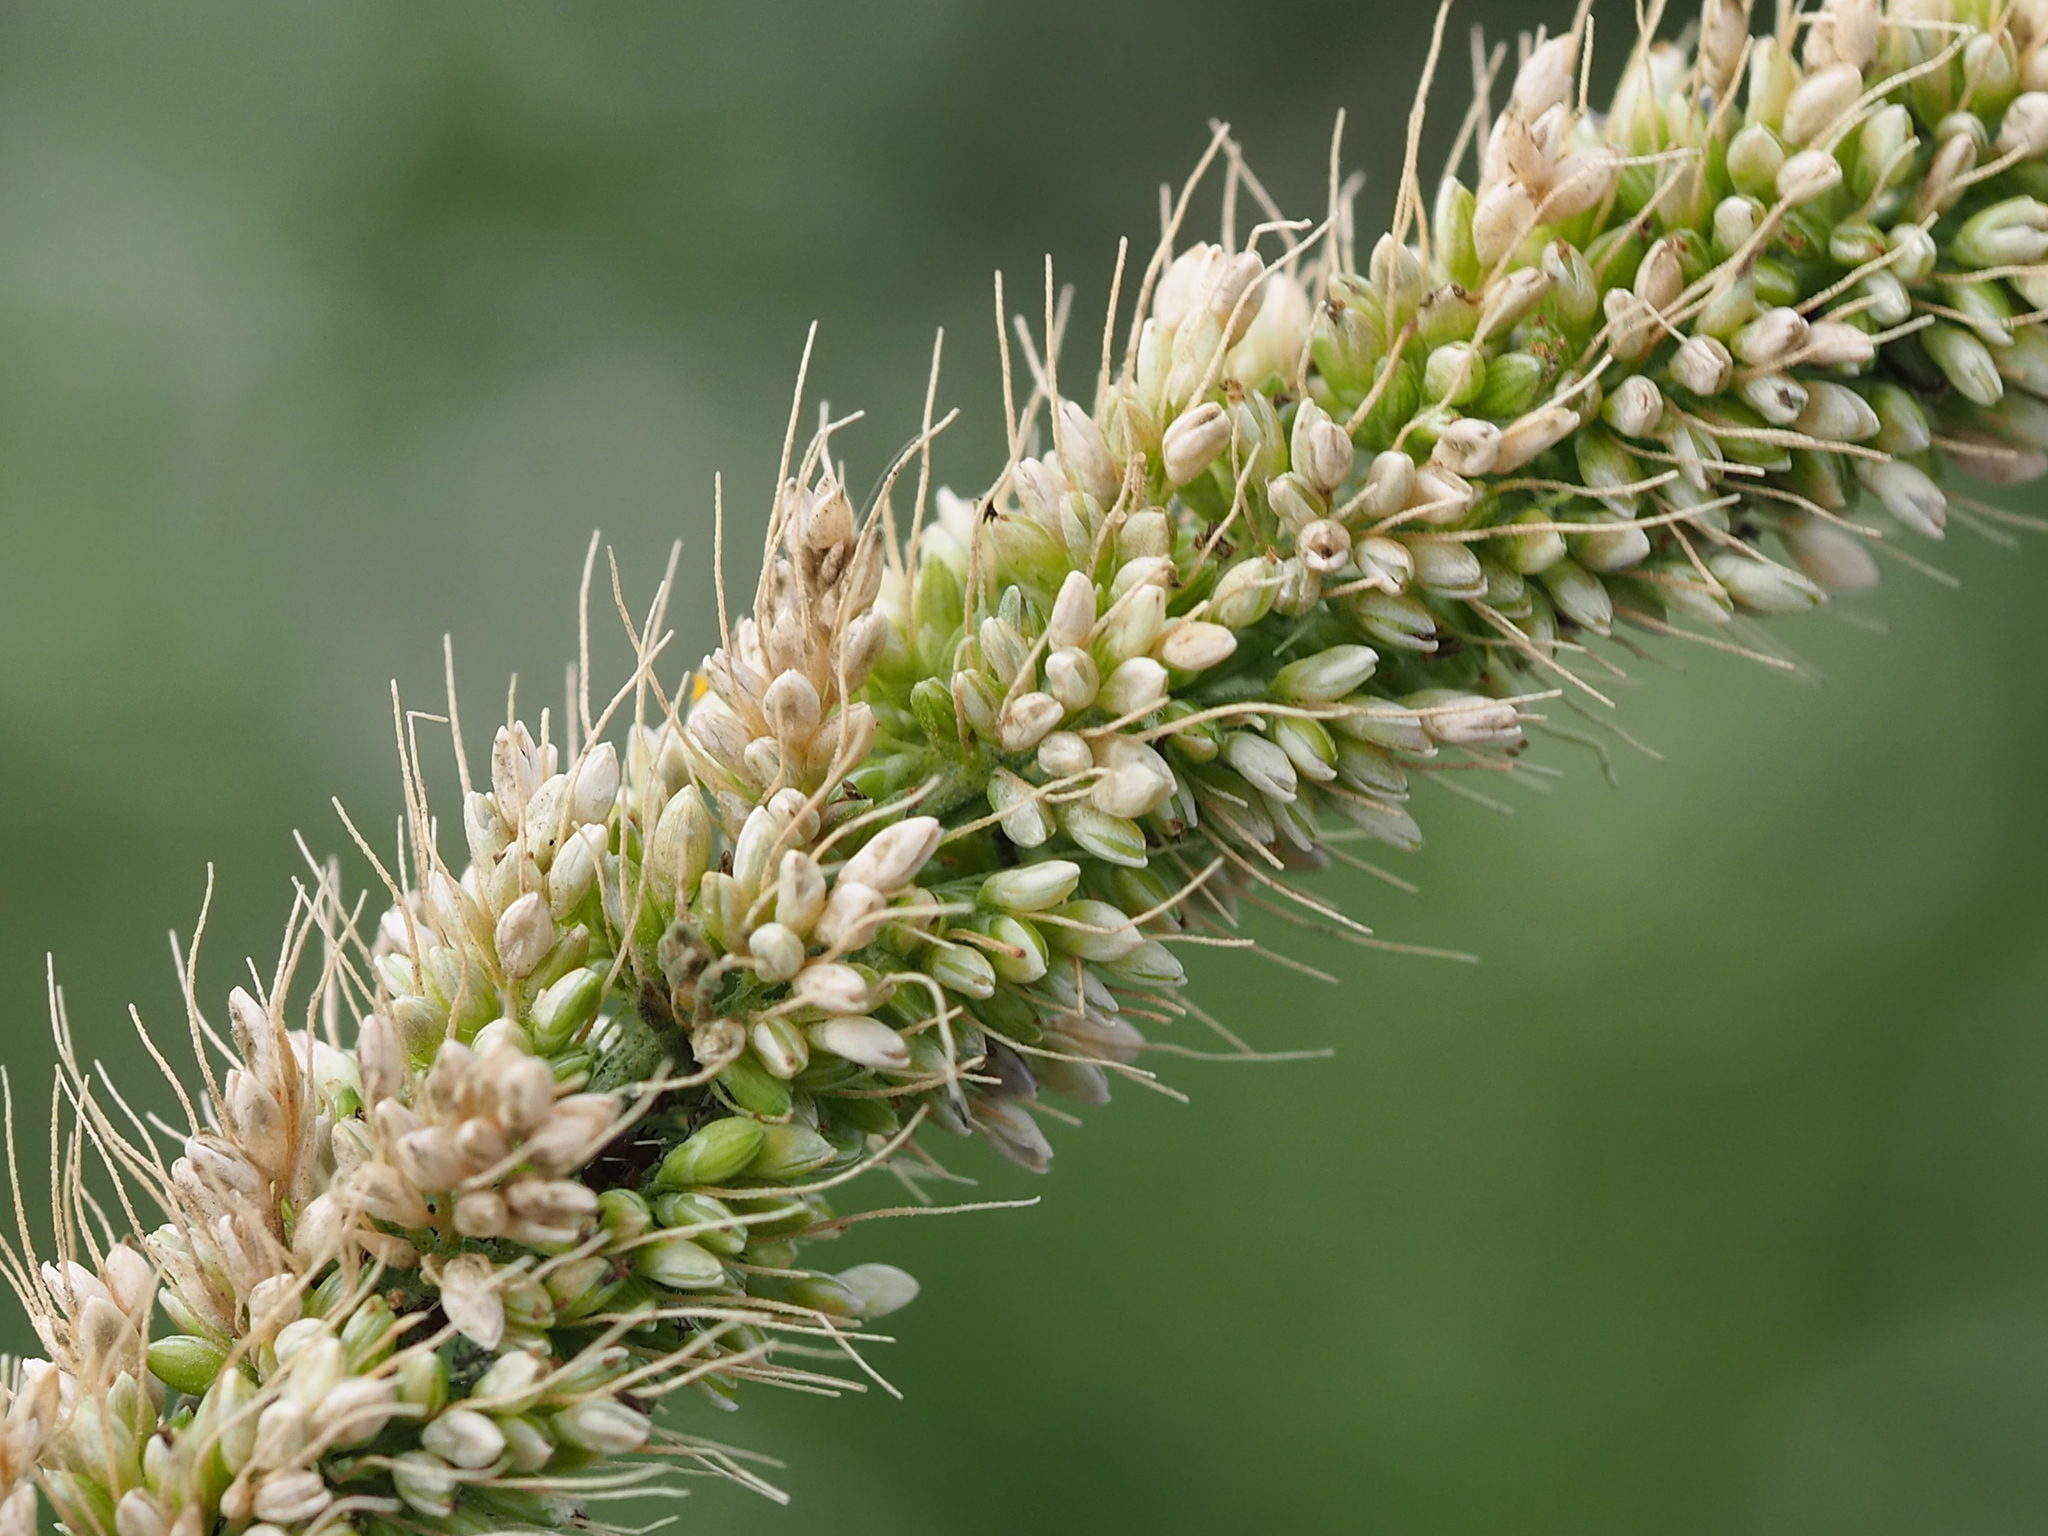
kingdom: Plantae
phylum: Tracheophyta
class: Liliopsida
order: Poales
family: Poaceae
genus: Setaria
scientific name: Setaria verticillata
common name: Hooked bristlegrass
